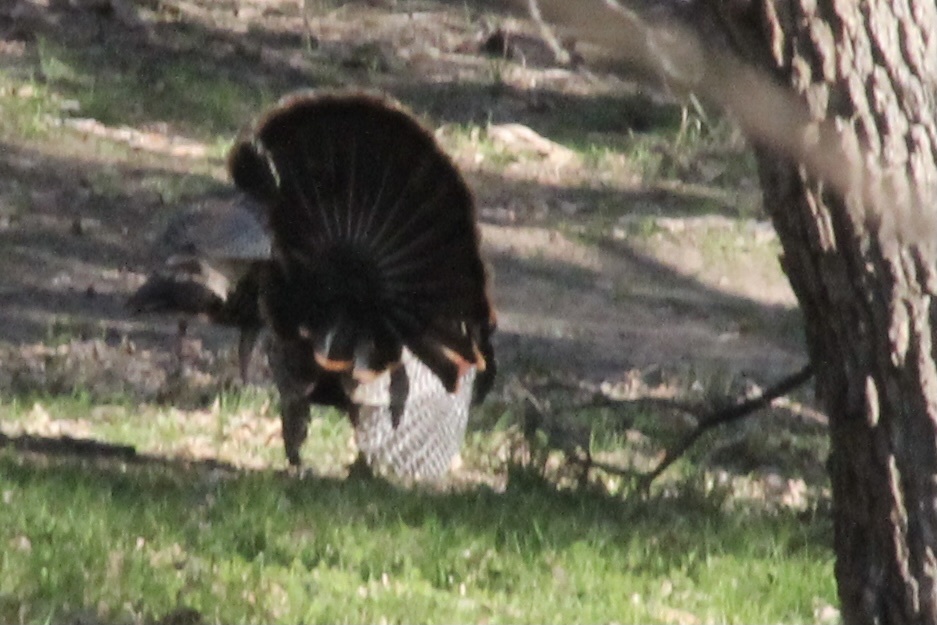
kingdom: Animalia
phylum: Chordata
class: Aves
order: Galliformes
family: Phasianidae
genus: Meleagris
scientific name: Meleagris gallopavo
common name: Wild turkey
